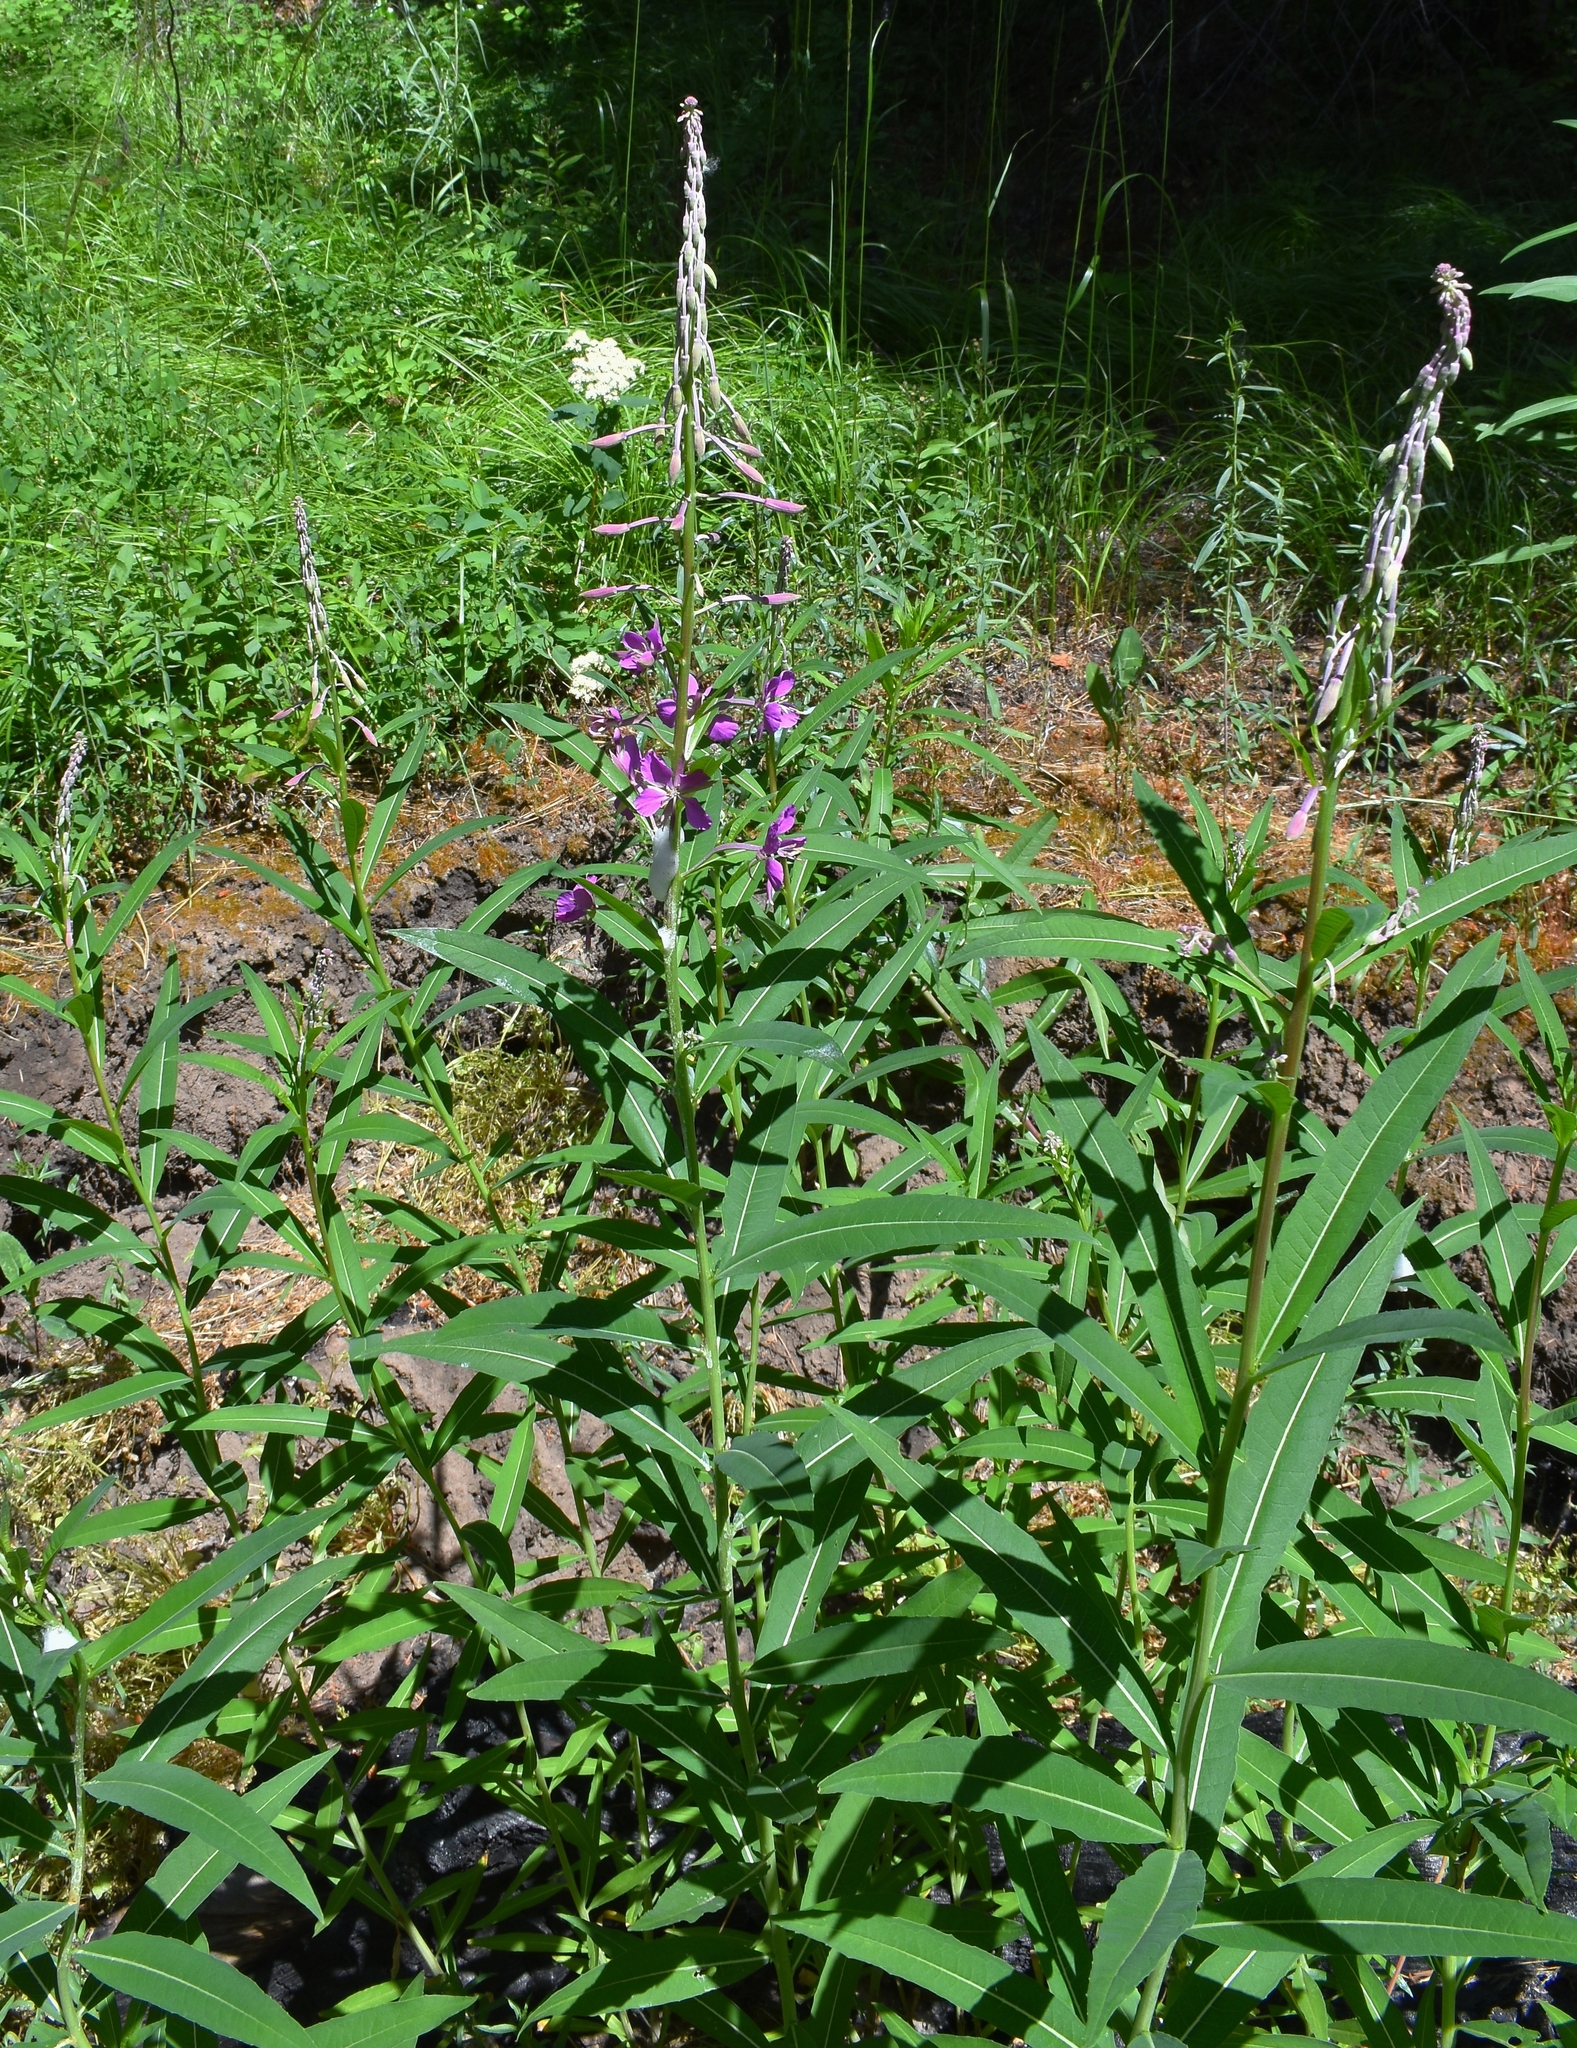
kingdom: Plantae
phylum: Tracheophyta
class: Magnoliopsida
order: Myrtales
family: Onagraceae
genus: Chamaenerion
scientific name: Chamaenerion angustifolium
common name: Fireweed
